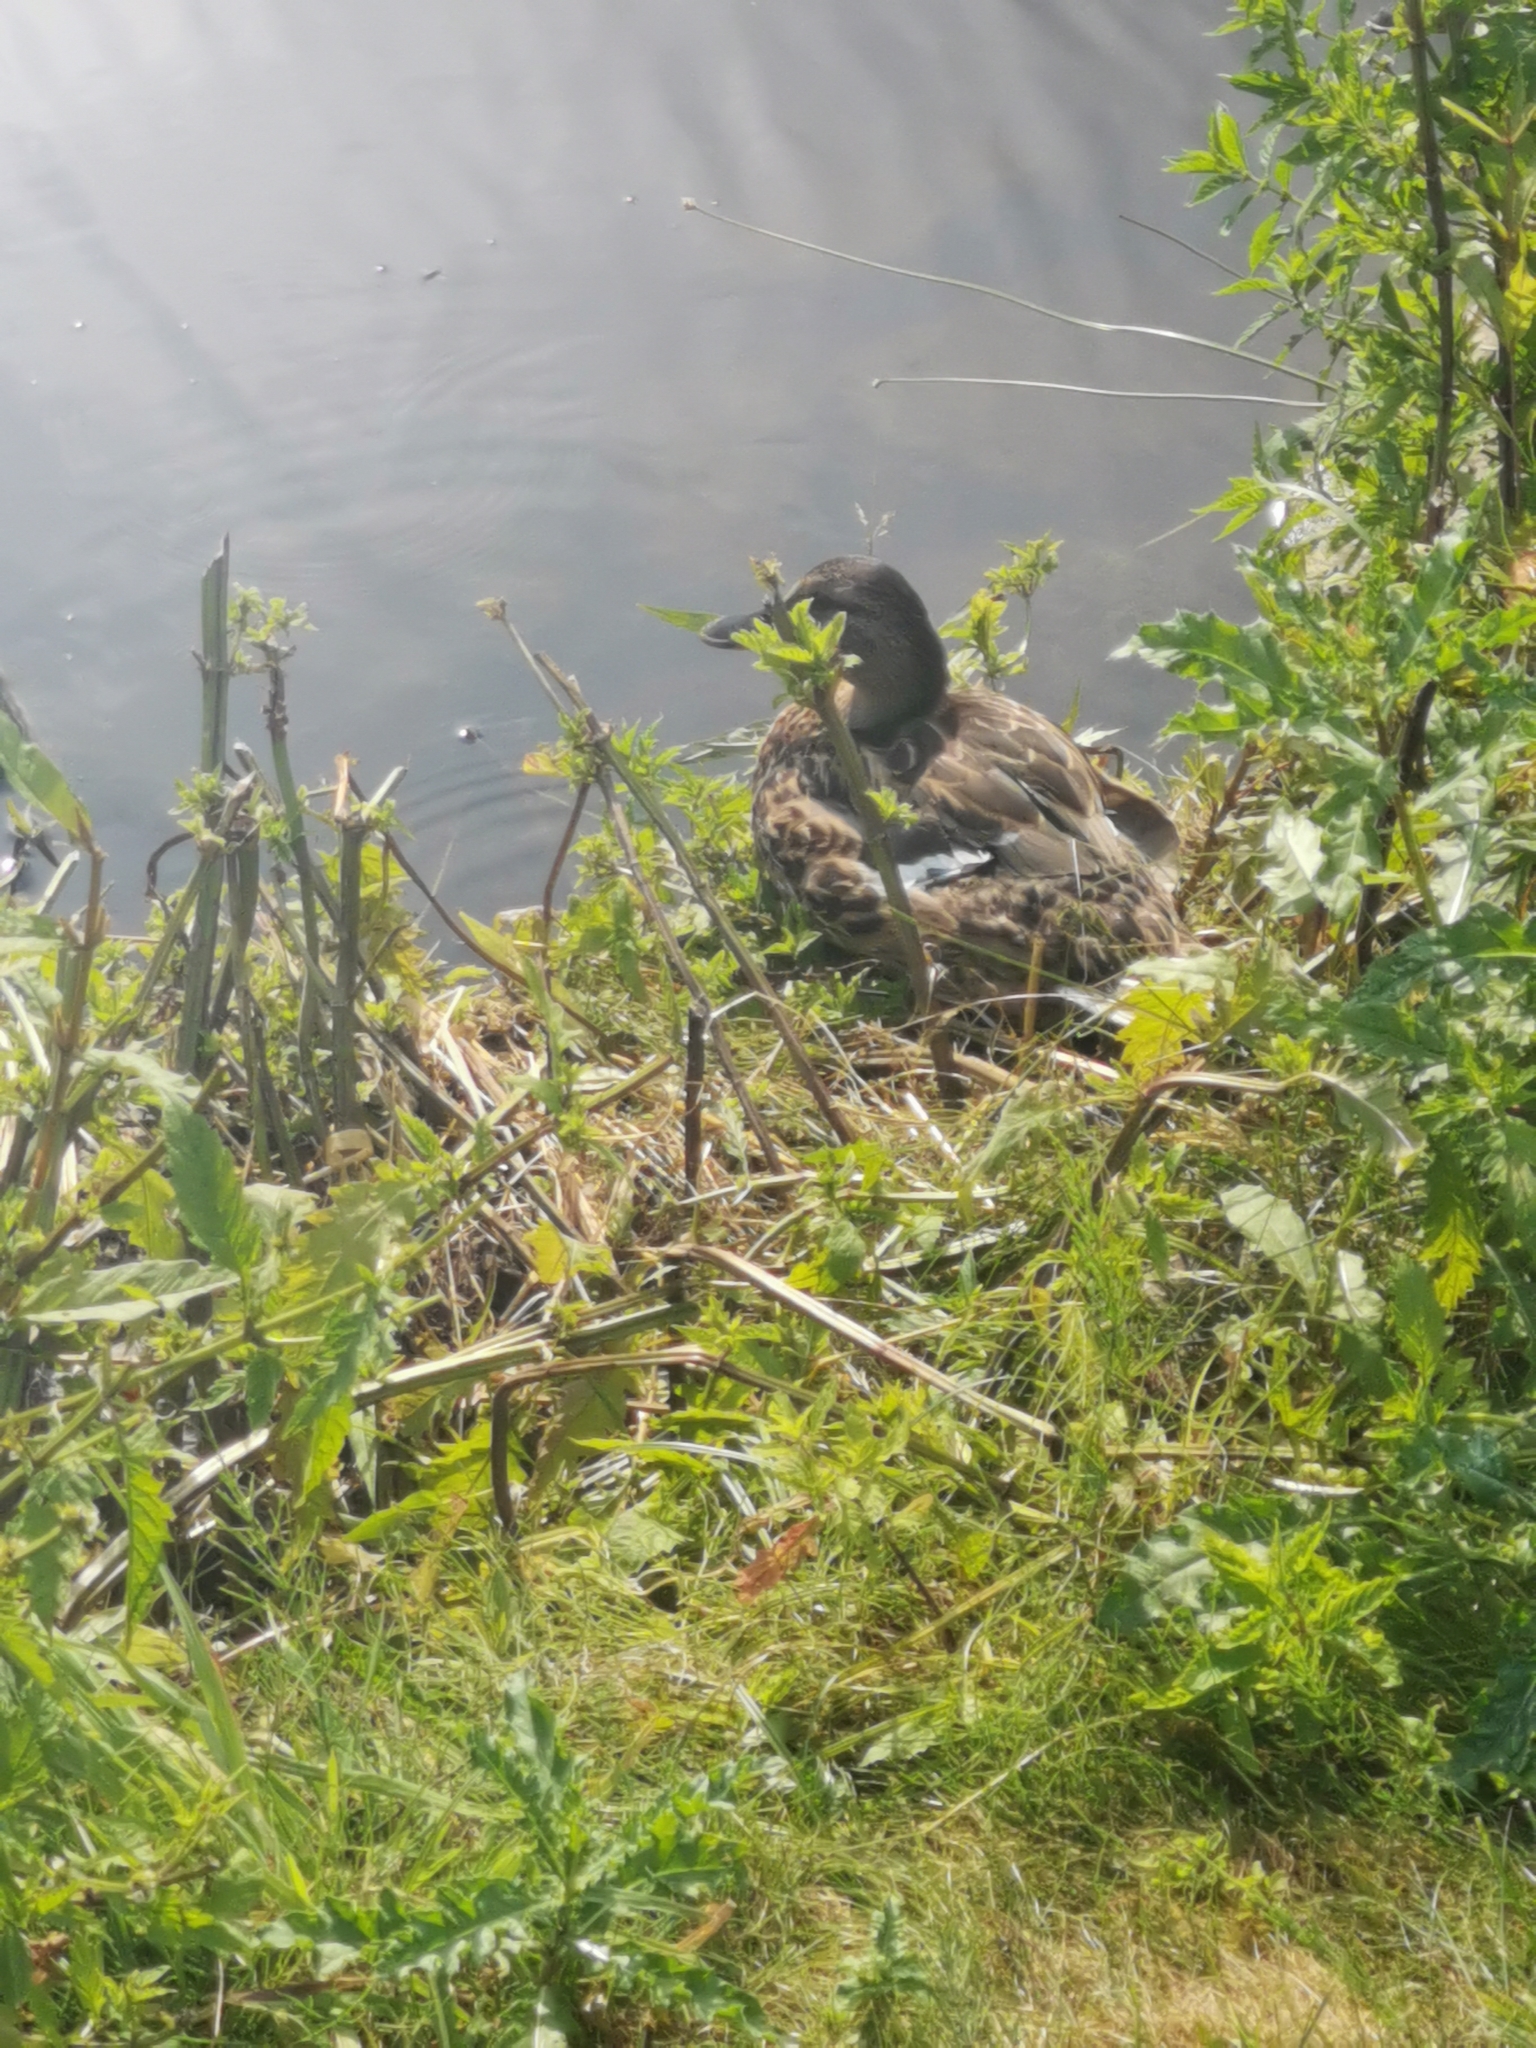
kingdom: Animalia
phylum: Chordata
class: Aves
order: Anseriformes
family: Anatidae
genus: Anas
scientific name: Anas platyrhynchos
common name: Mallard
